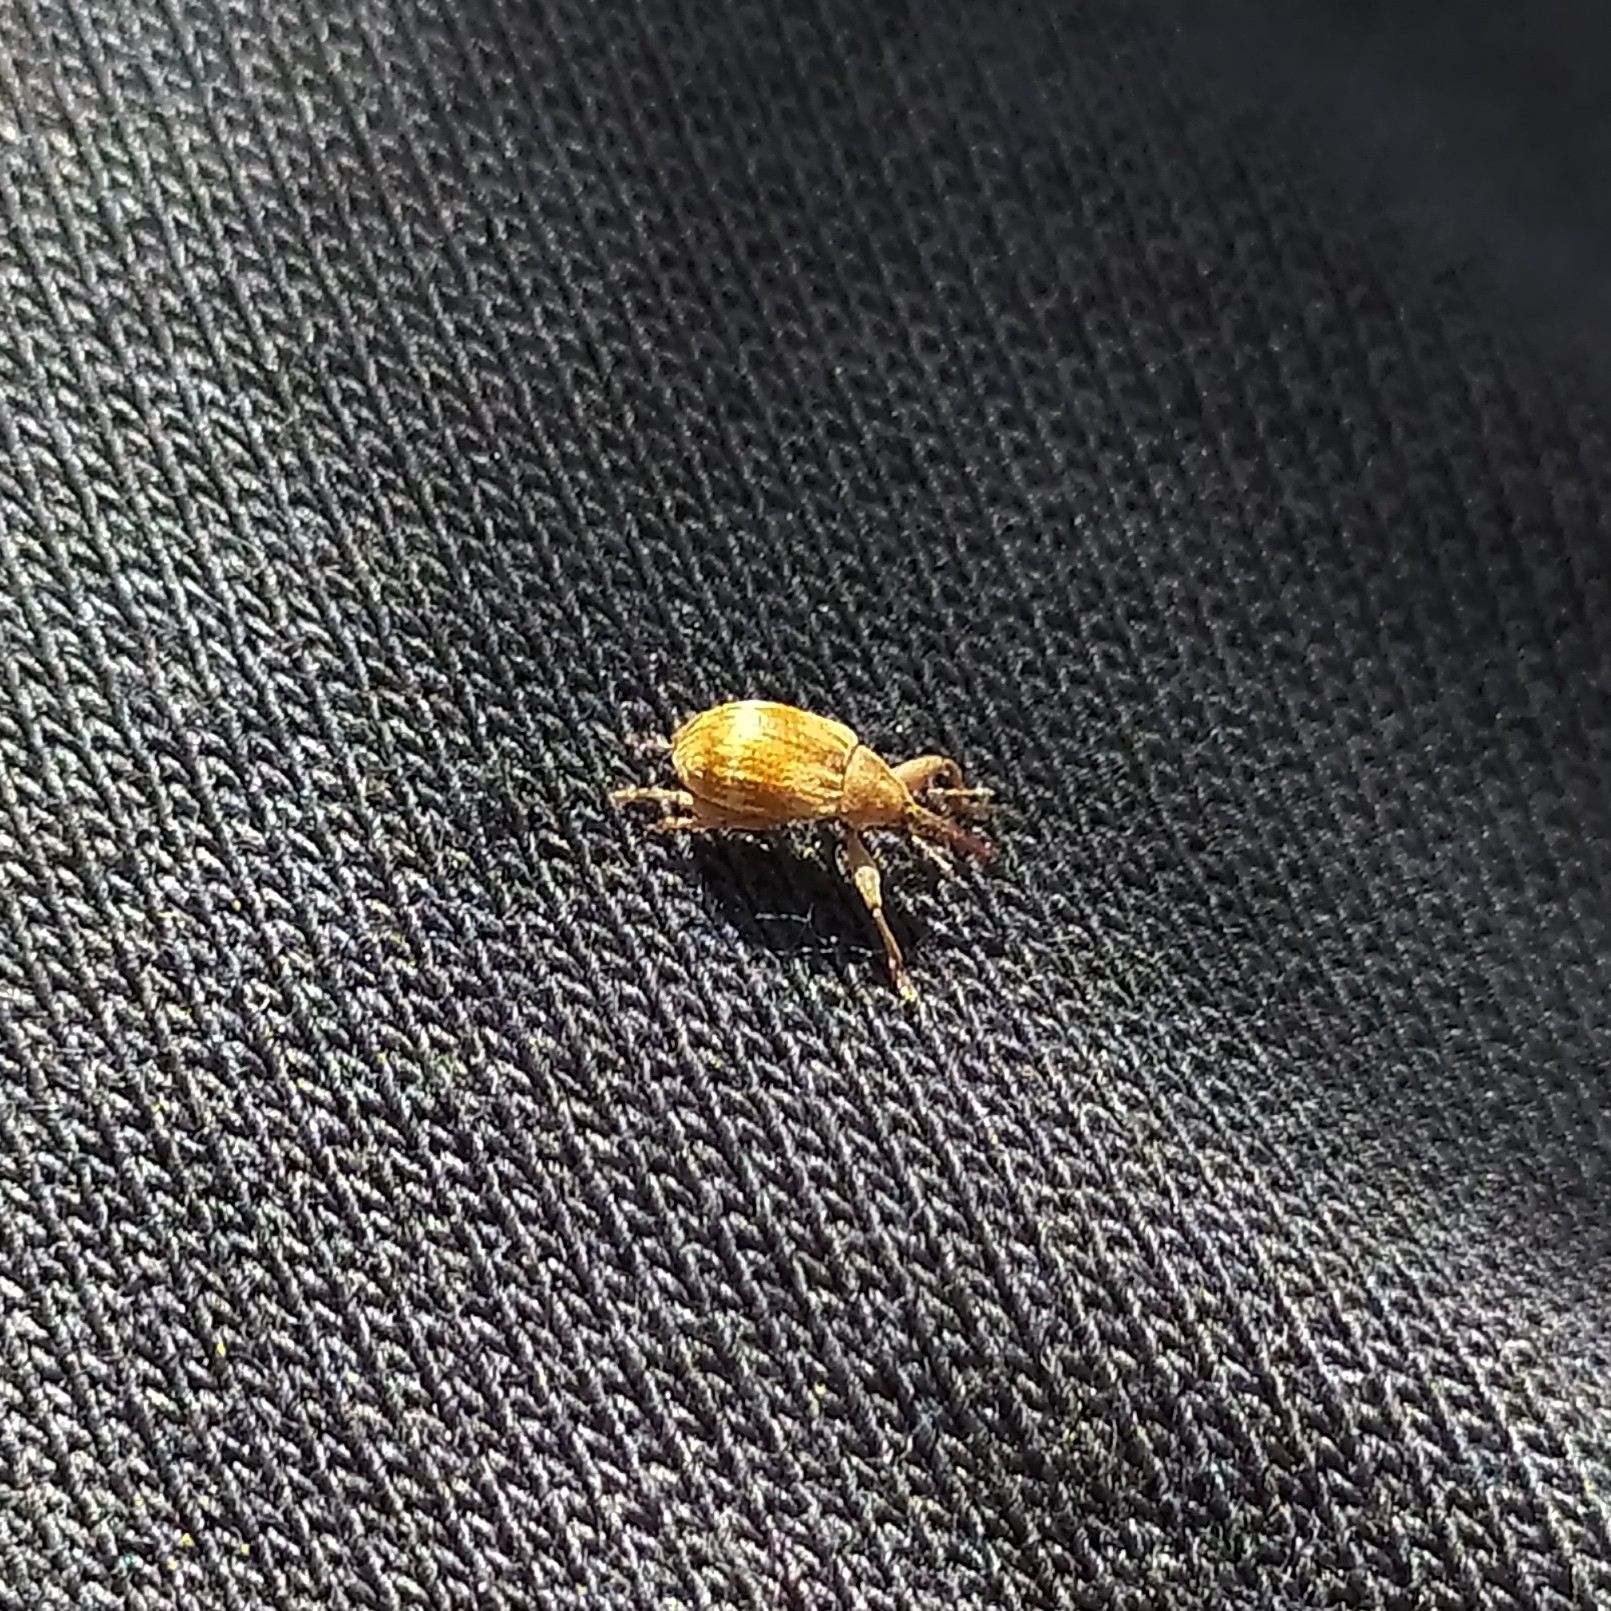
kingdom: Animalia
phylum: Arthropoda
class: Insecta
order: Coleoptera
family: Curculionidae
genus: Anthonomus
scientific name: Anthonomus rectirostris
